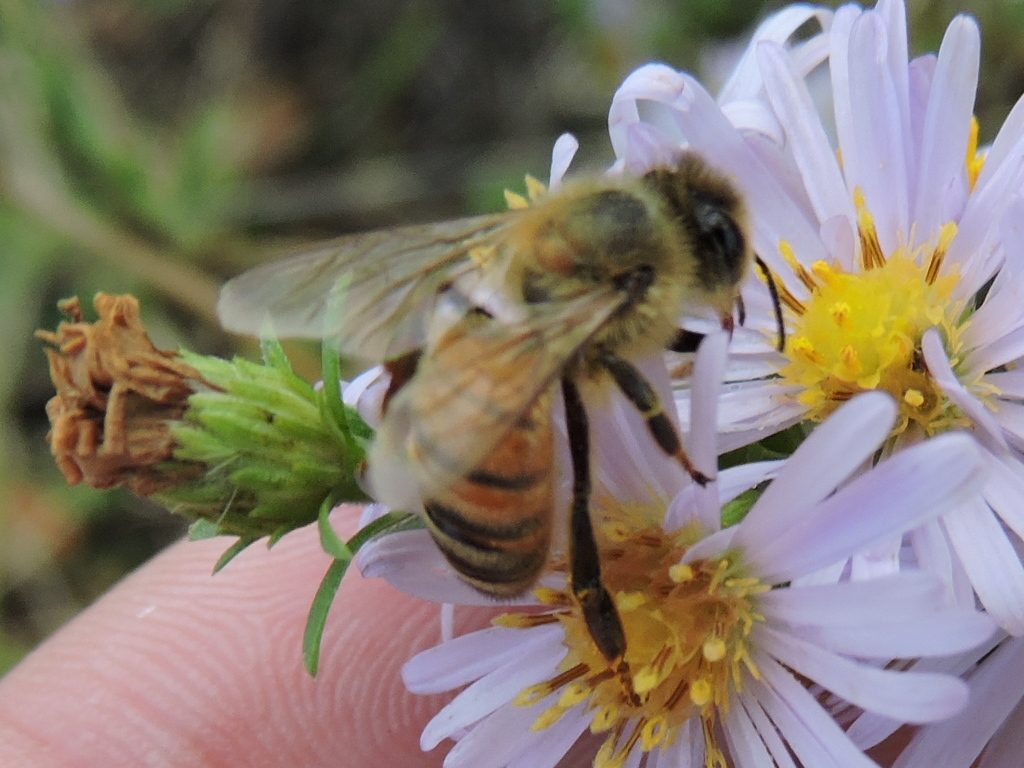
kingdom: Animalia
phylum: Arthropoda
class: Insecta
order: Hymenoptera
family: Apidae
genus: Apis
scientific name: Apis mellifera
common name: Honey bee
